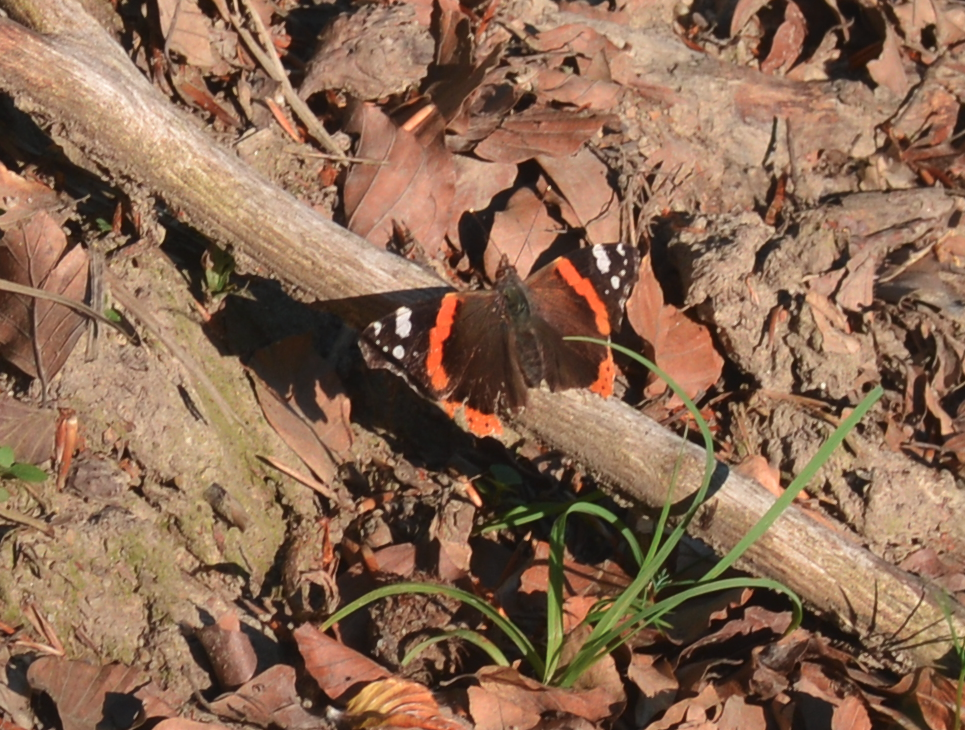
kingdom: Animalia
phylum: Arthropoda
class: Insecta
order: Lepidoptera
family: Nymphalidae
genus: Vanessa
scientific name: Vanessa atalanta
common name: Red admiral
